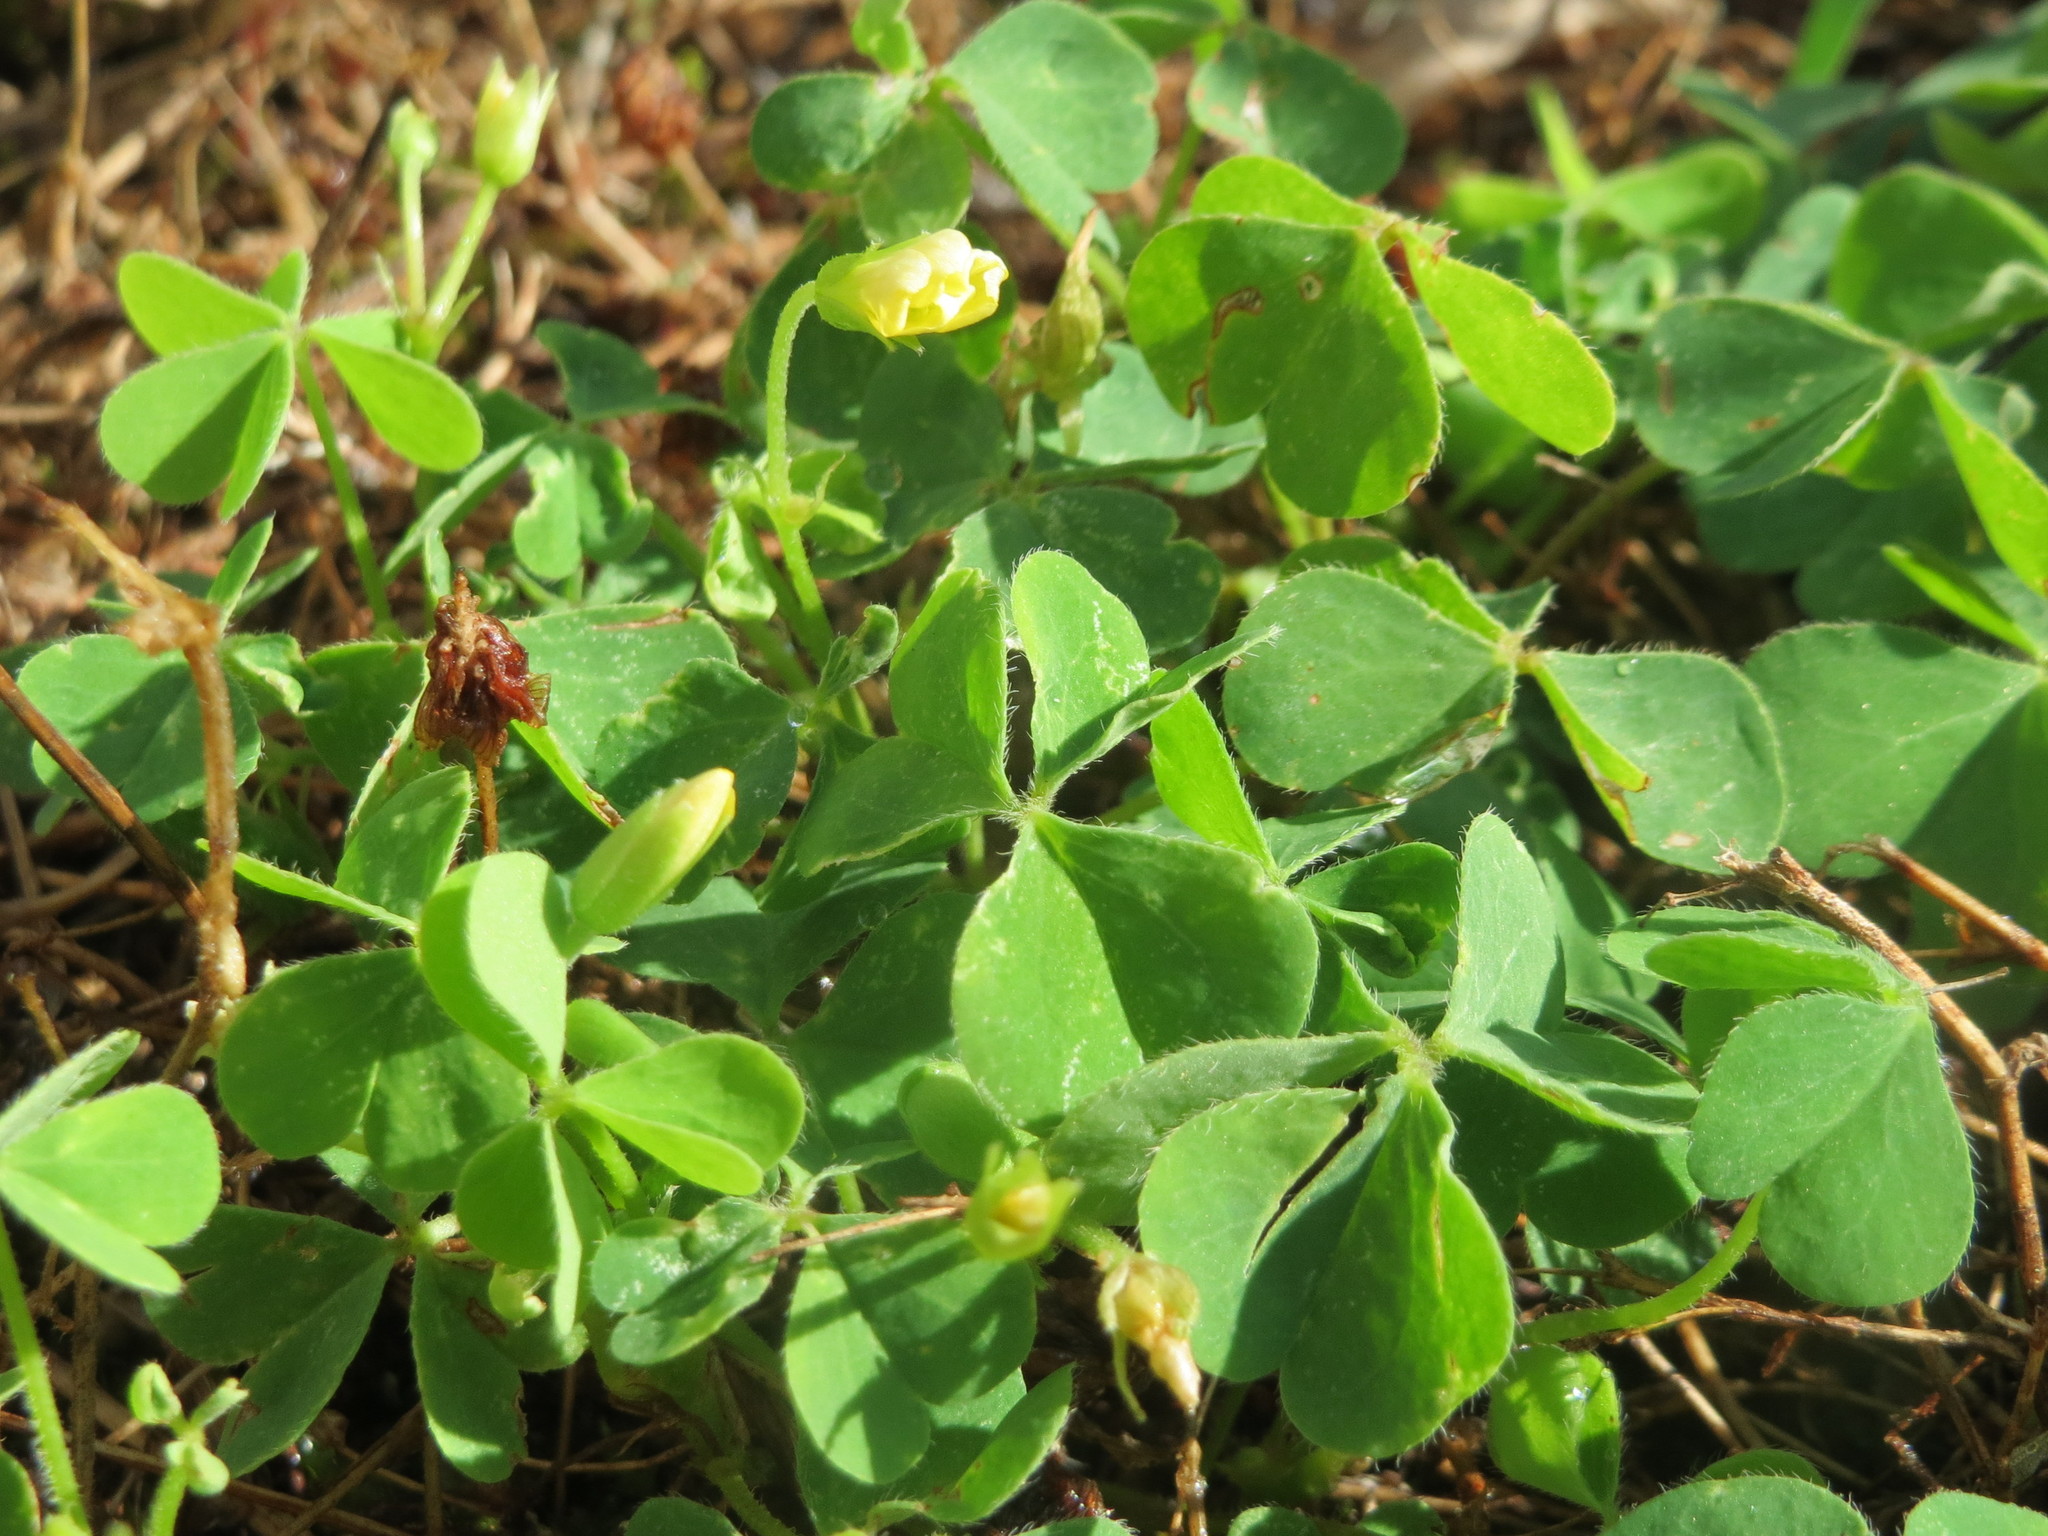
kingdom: Plantae
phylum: Tracheophyta
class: Magnoliopsida
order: Oxalidales
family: Oxalidaceae
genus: Oxalis
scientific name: Oxalis corniculata
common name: Procumbent yellow-sorrel
